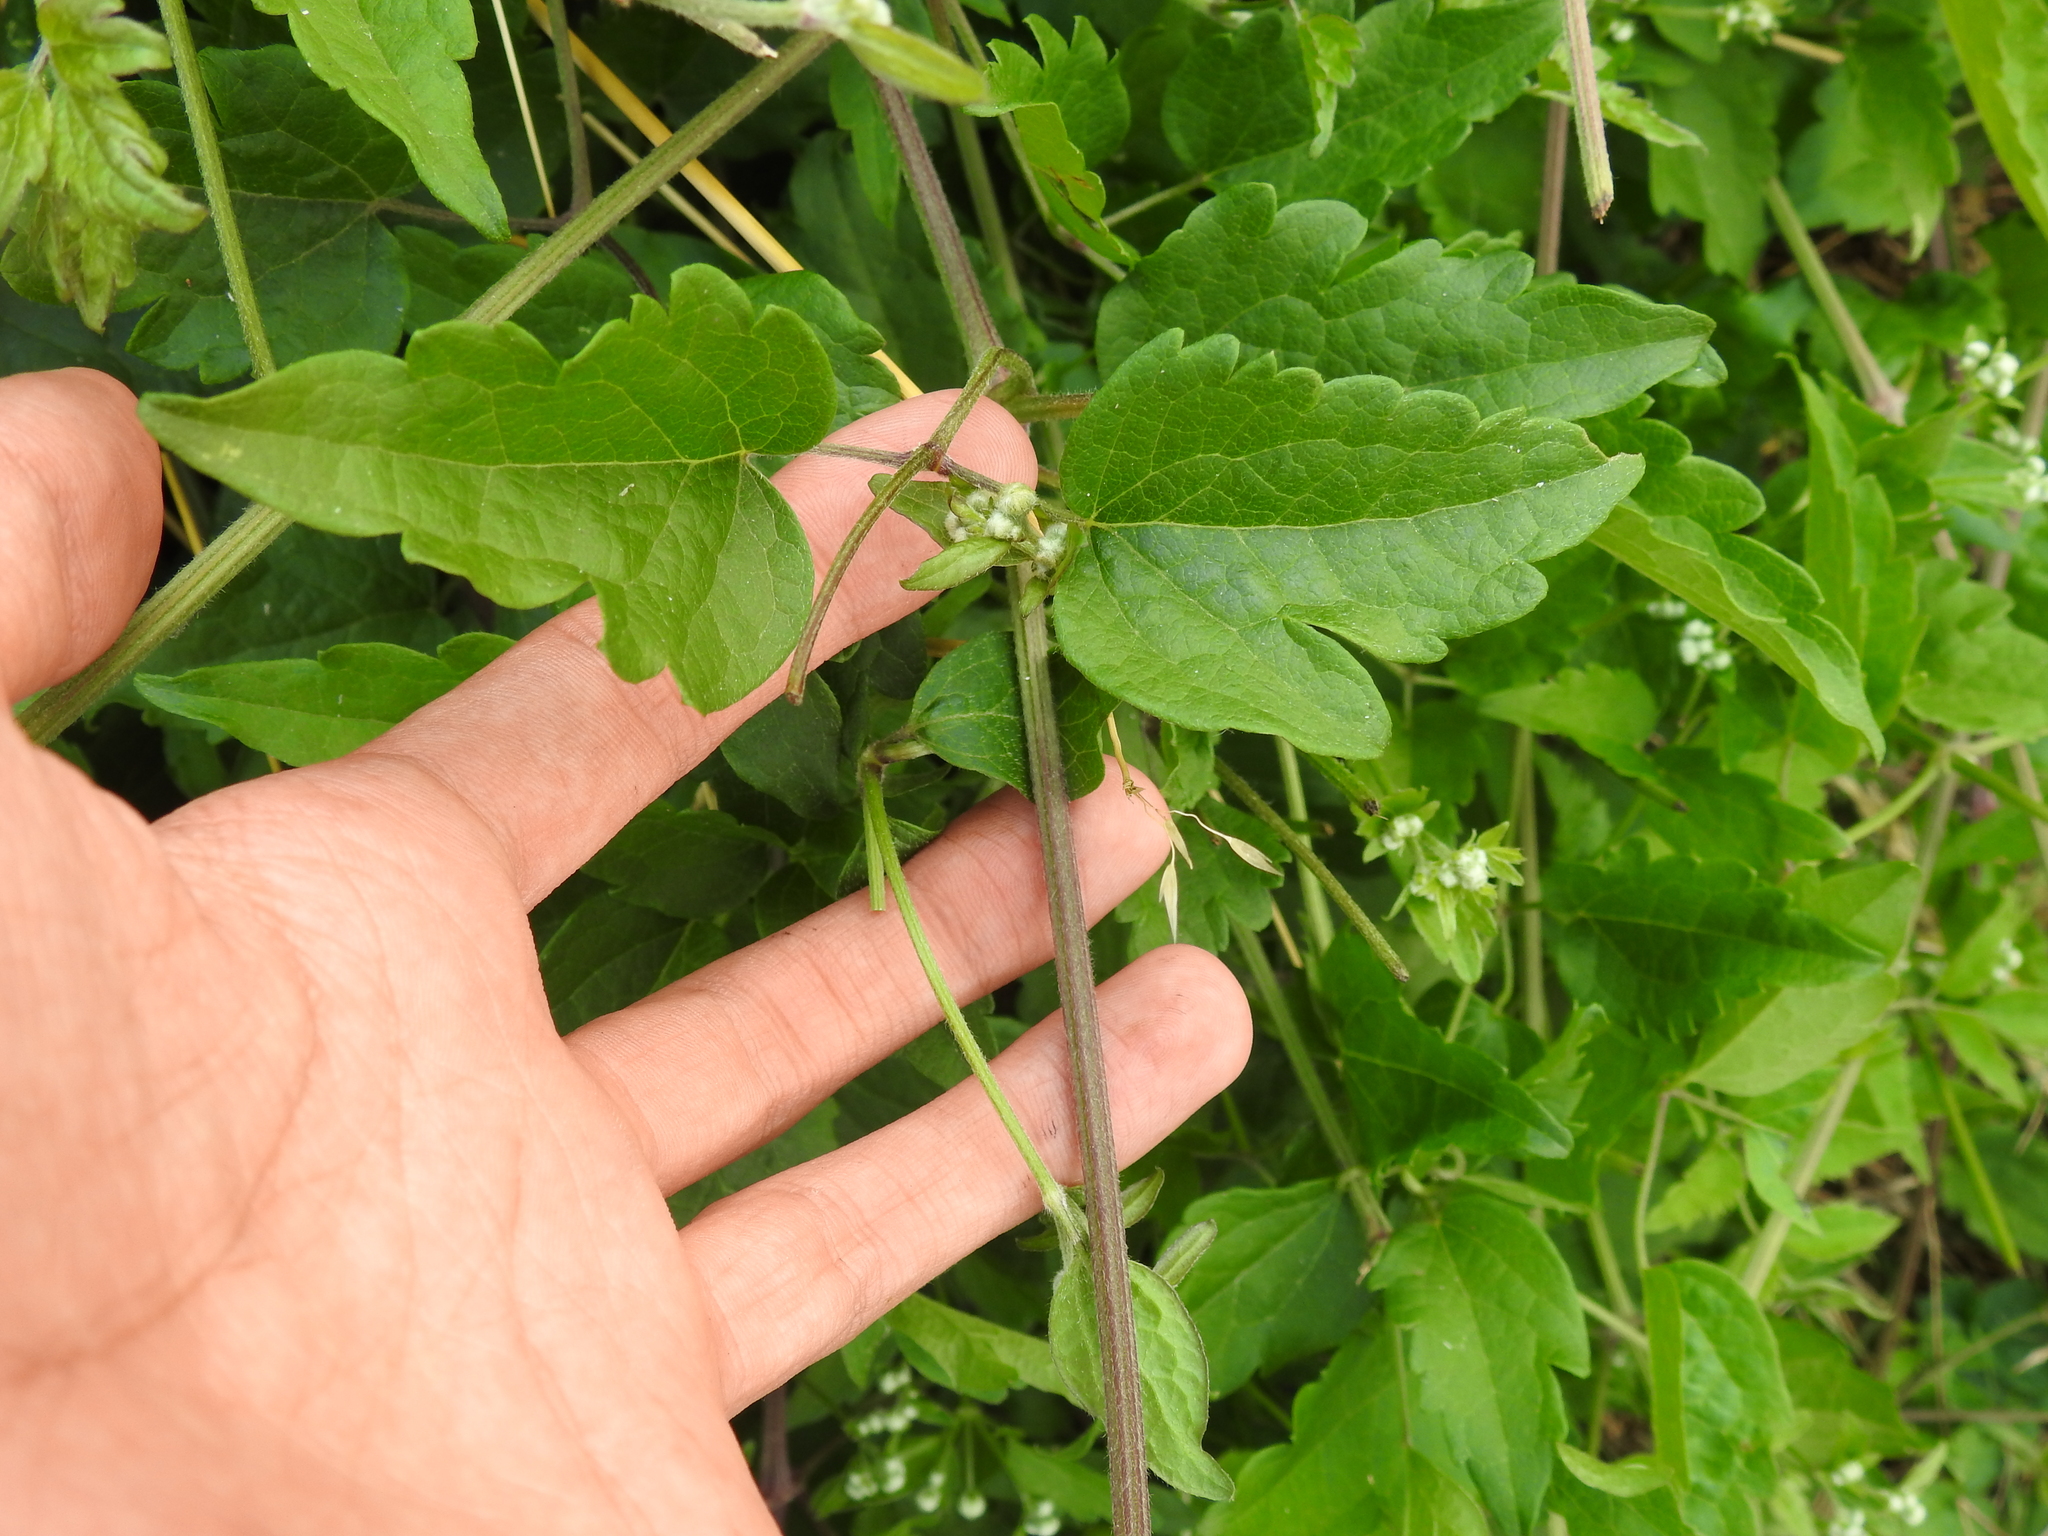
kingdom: Plantae
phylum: Tracheophyta
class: Magnoliopsida
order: Ranunculales
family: Ranunculaceae
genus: Clematis
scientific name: Clematis vitalba
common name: Evergreen clematis
